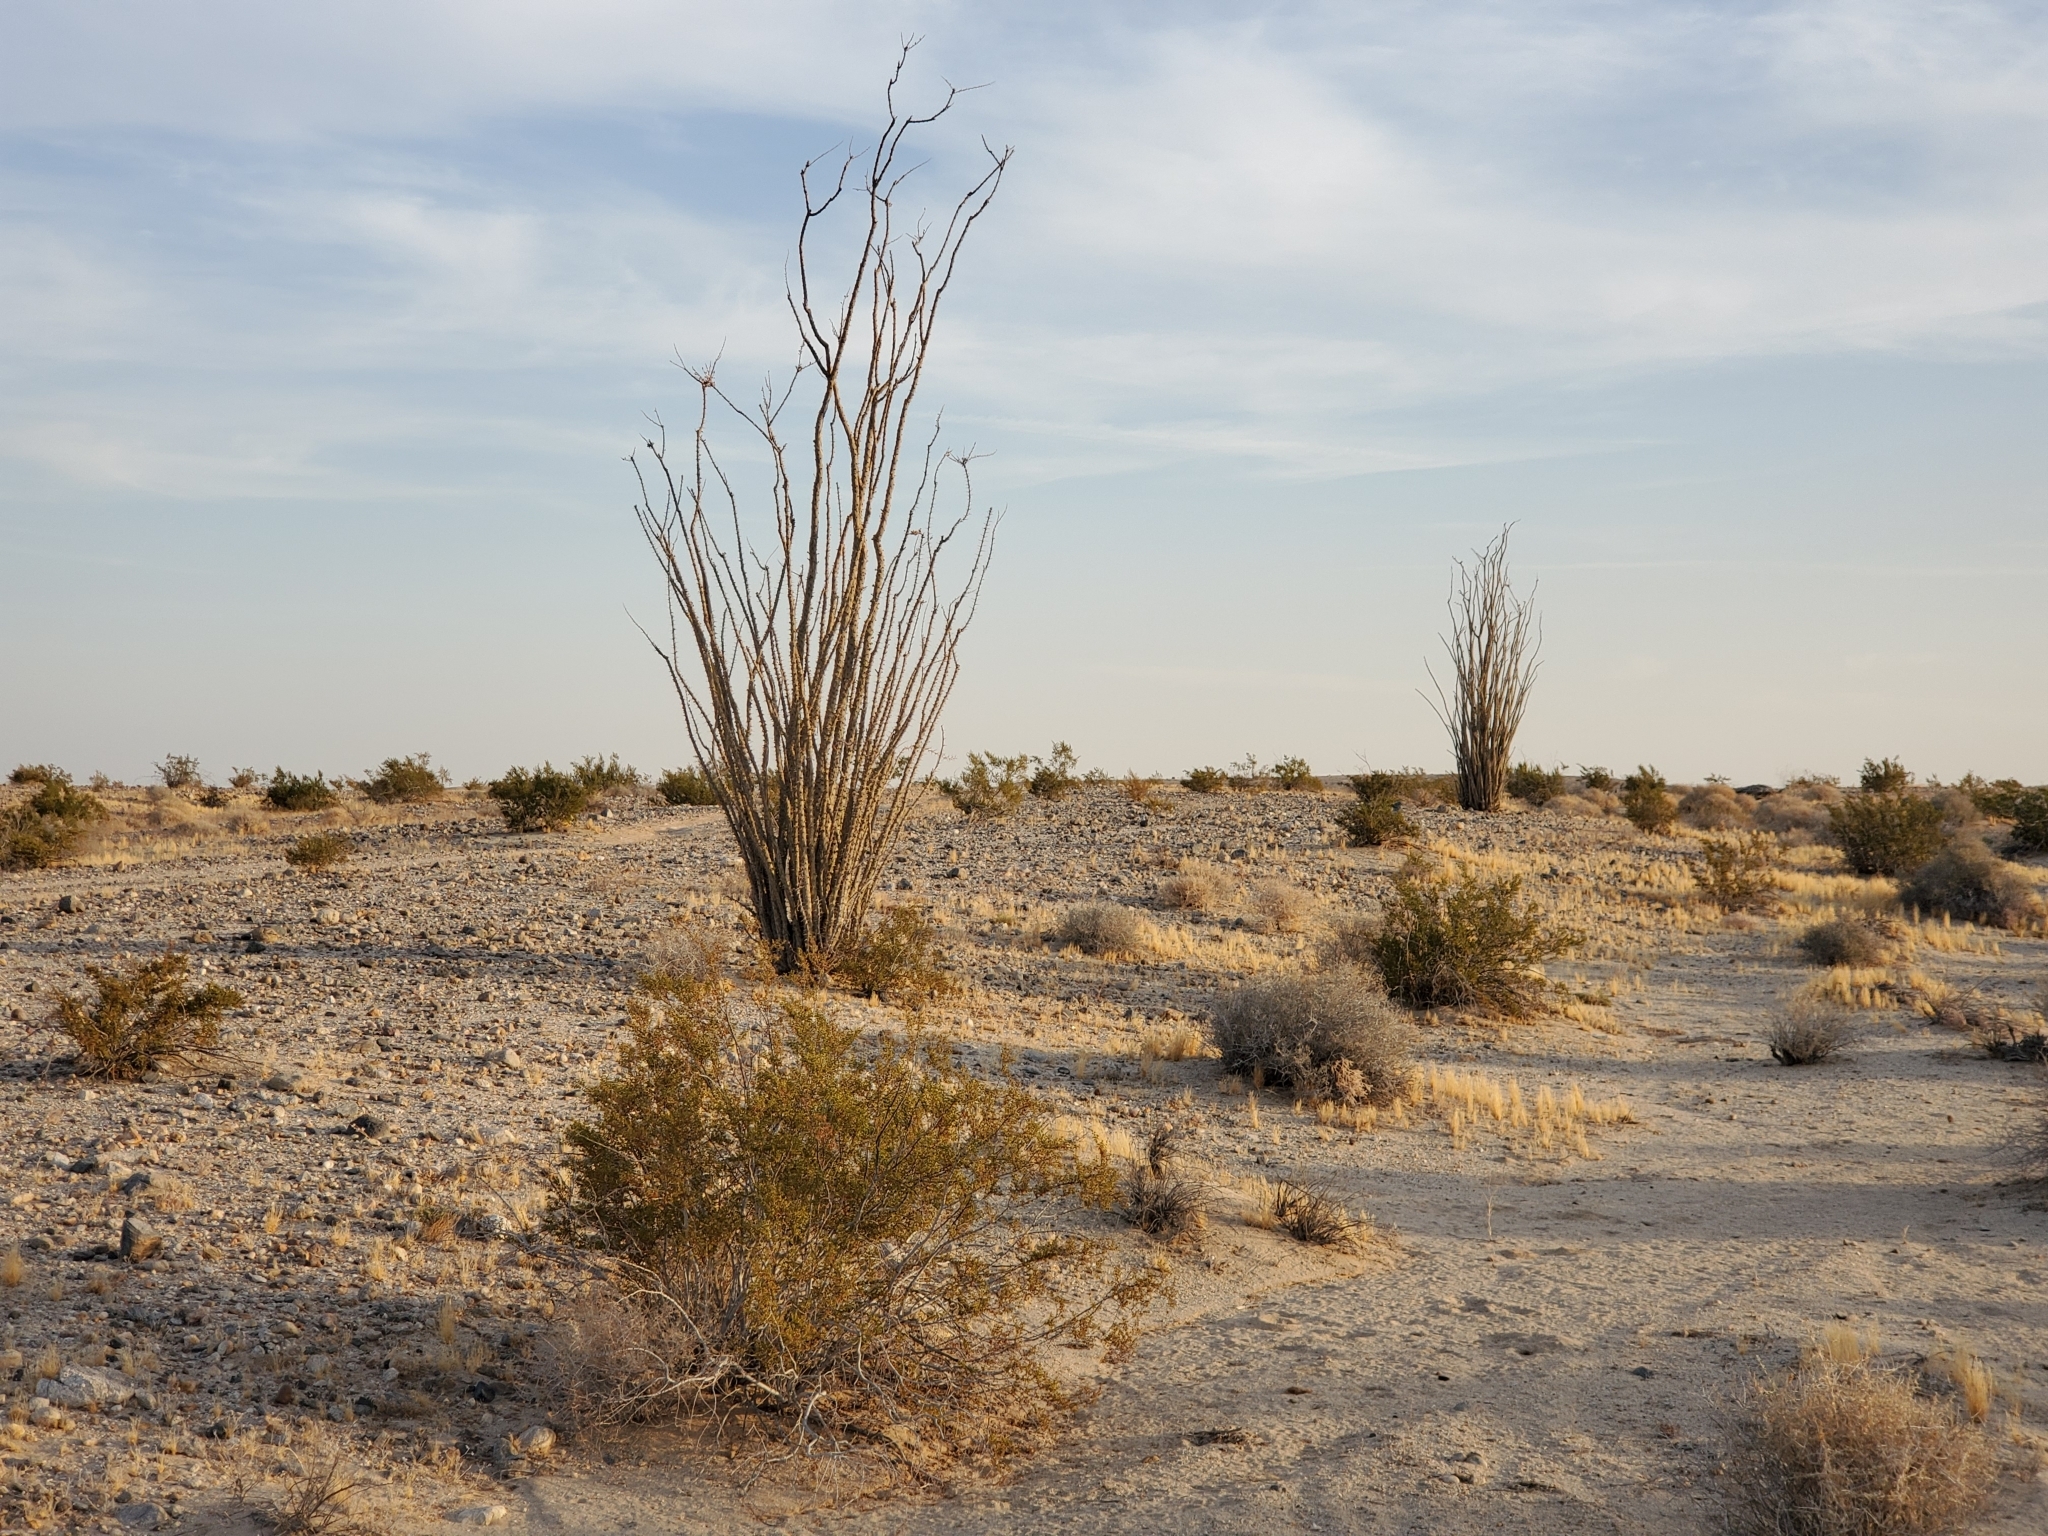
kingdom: Plantae
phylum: Tracheophyta
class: Magnoliopsida
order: Ericales
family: Fouquieriaceae
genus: Fouquieria
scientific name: Fouquieria splendens
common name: Vine-cactus
